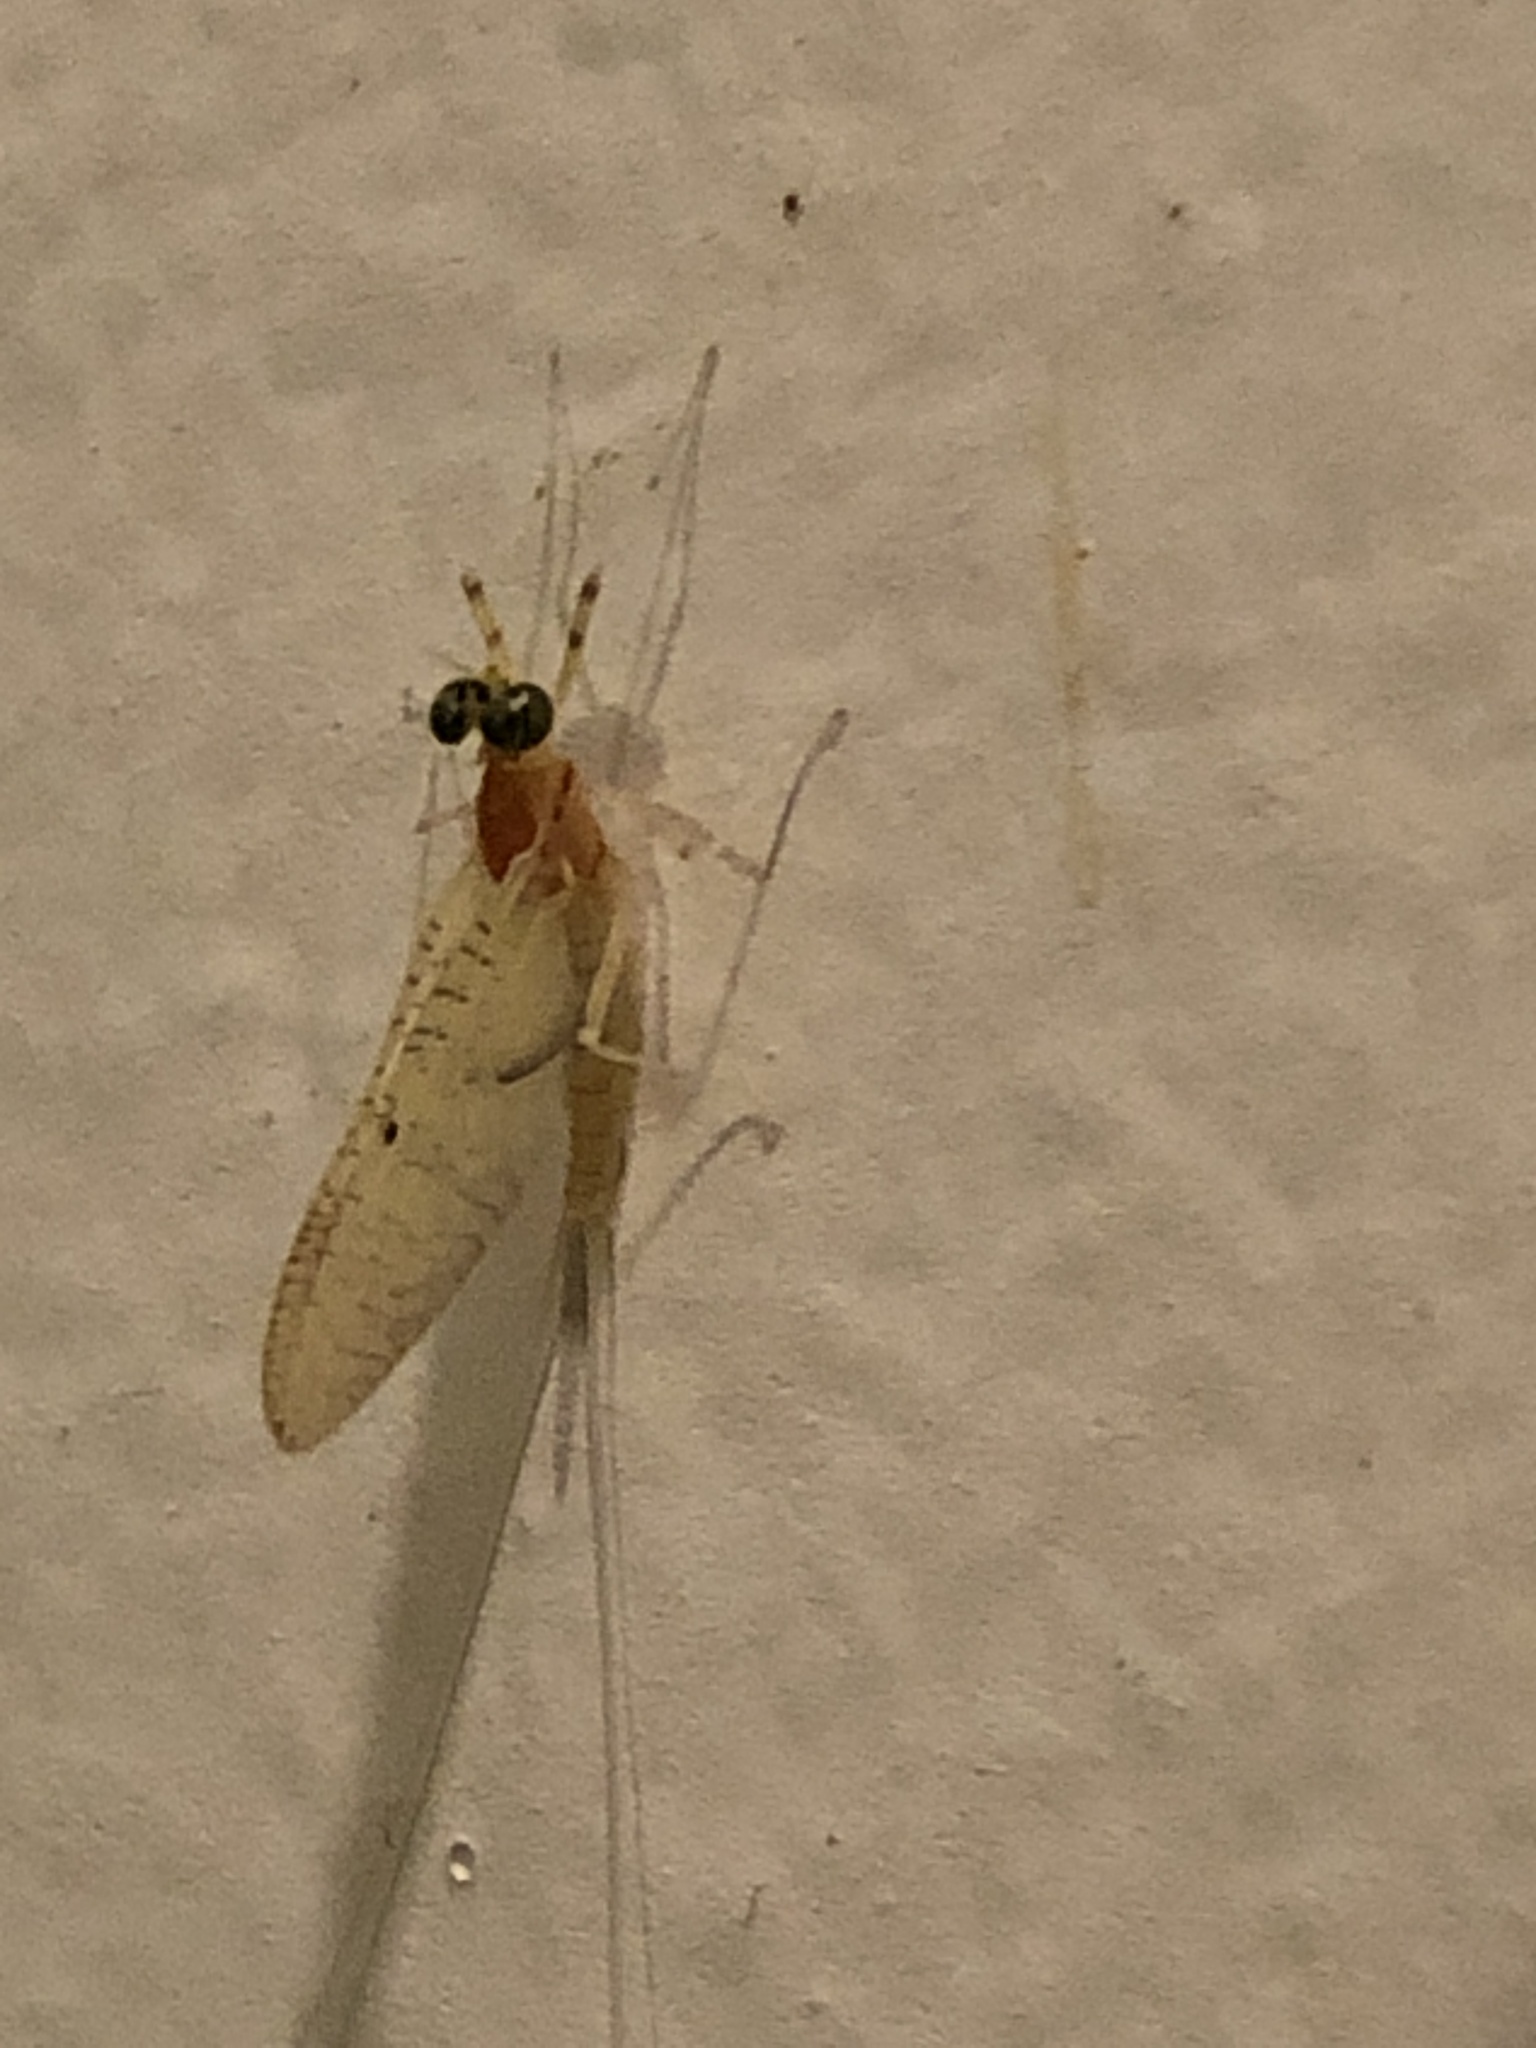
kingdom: Animalia
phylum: Arthropoda
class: Insecta
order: Ephemeroptera
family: Heptageniidae
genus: Stenacron
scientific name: Stenacron interpunctatum
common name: Orange cahill
